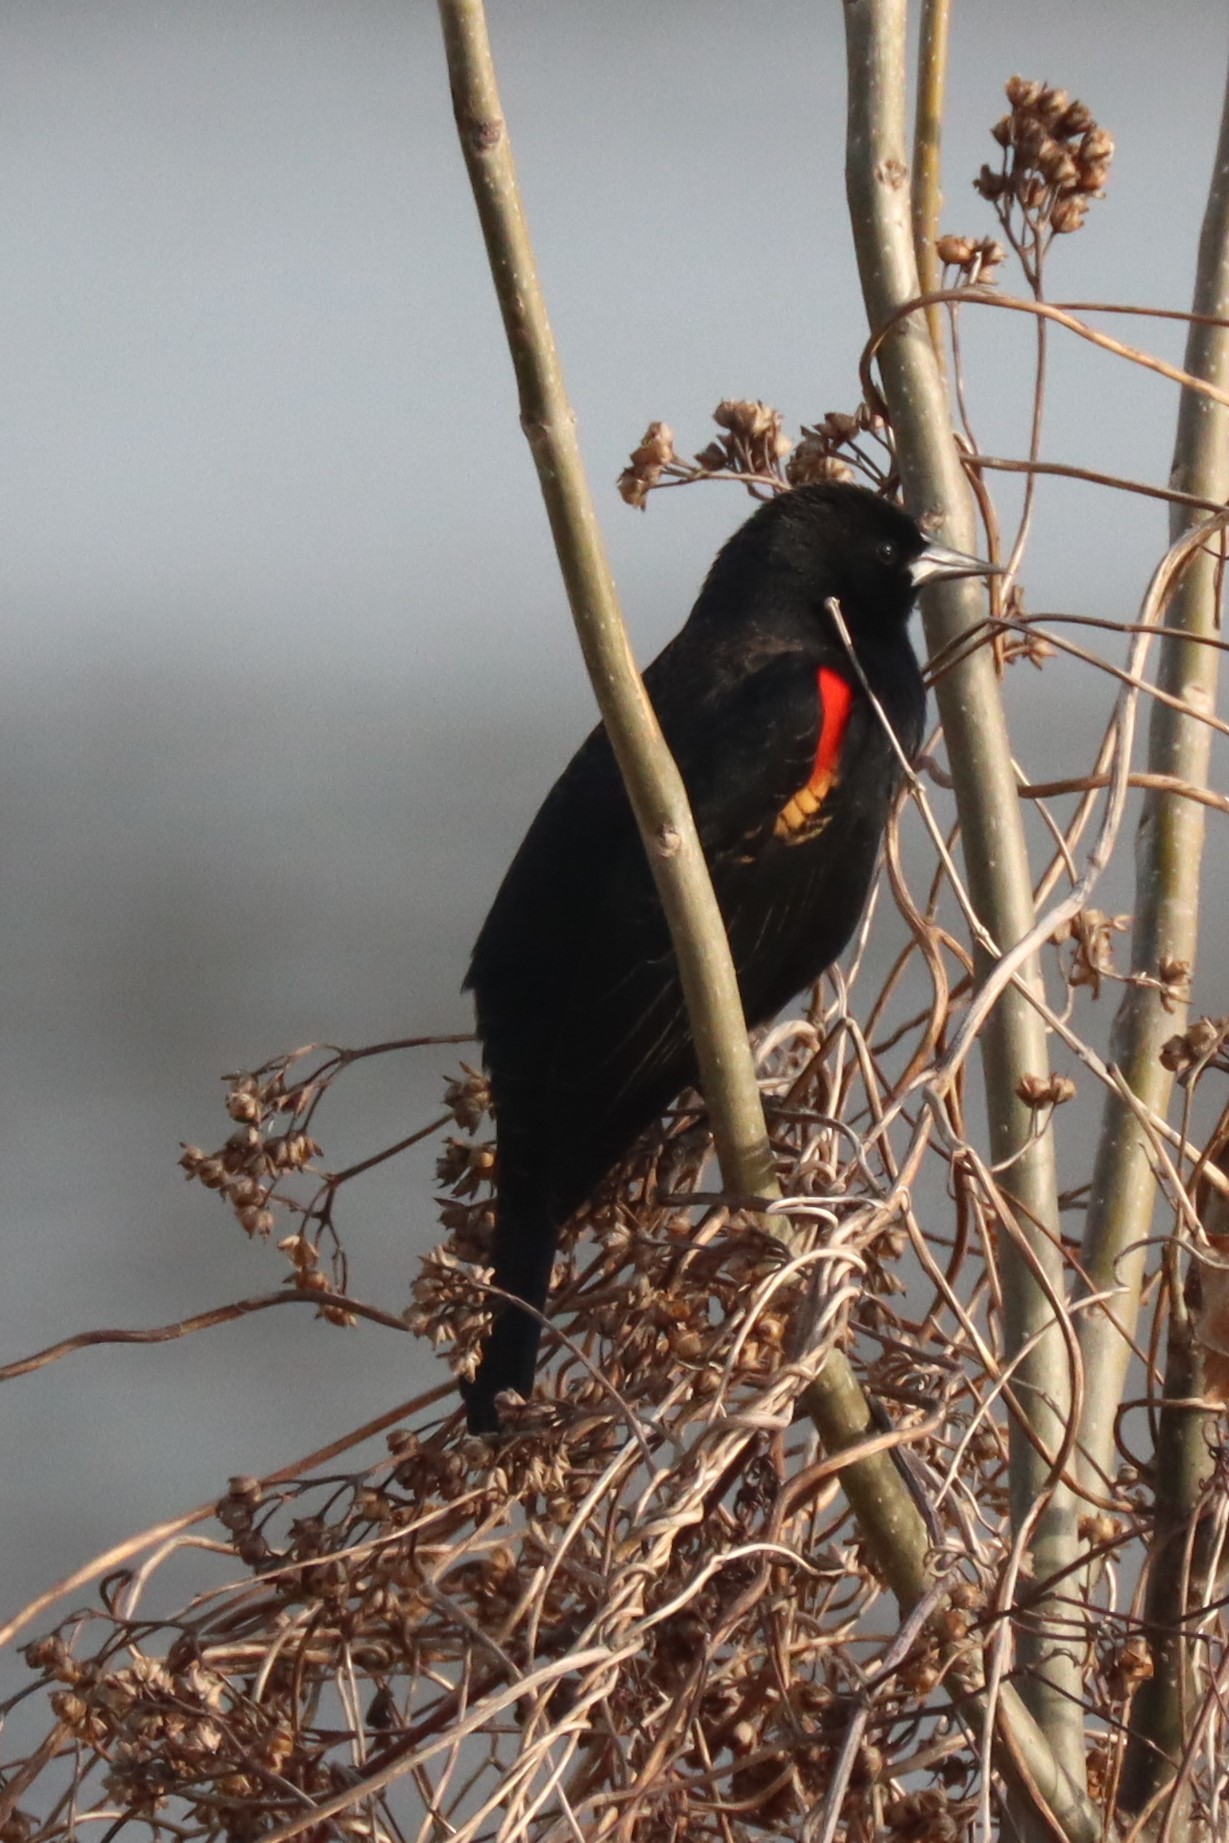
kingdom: Animalia
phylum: Chordata
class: Aves
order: Passeriformes
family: Icteridae
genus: Agelaius
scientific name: Agelaius phoeniceus
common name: Red-winged blackbird
